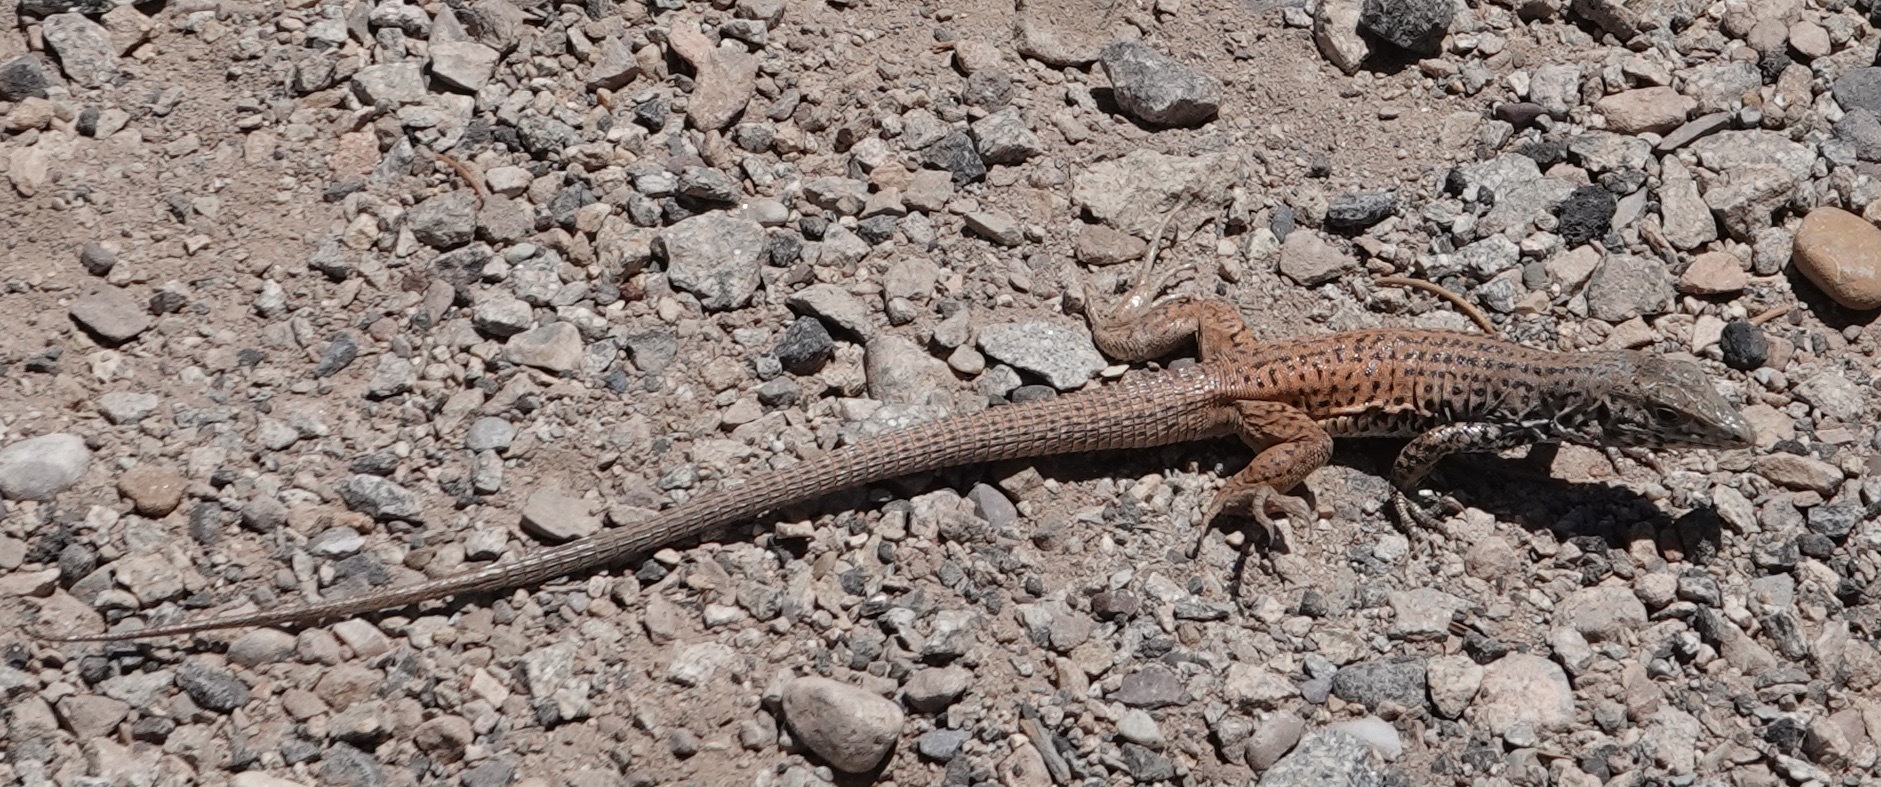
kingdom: Animalia
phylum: Chordata
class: Squamata
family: Teiidae
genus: Aspidoscelis
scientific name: Aspidoscelis tigris
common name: Tiger whiptail
